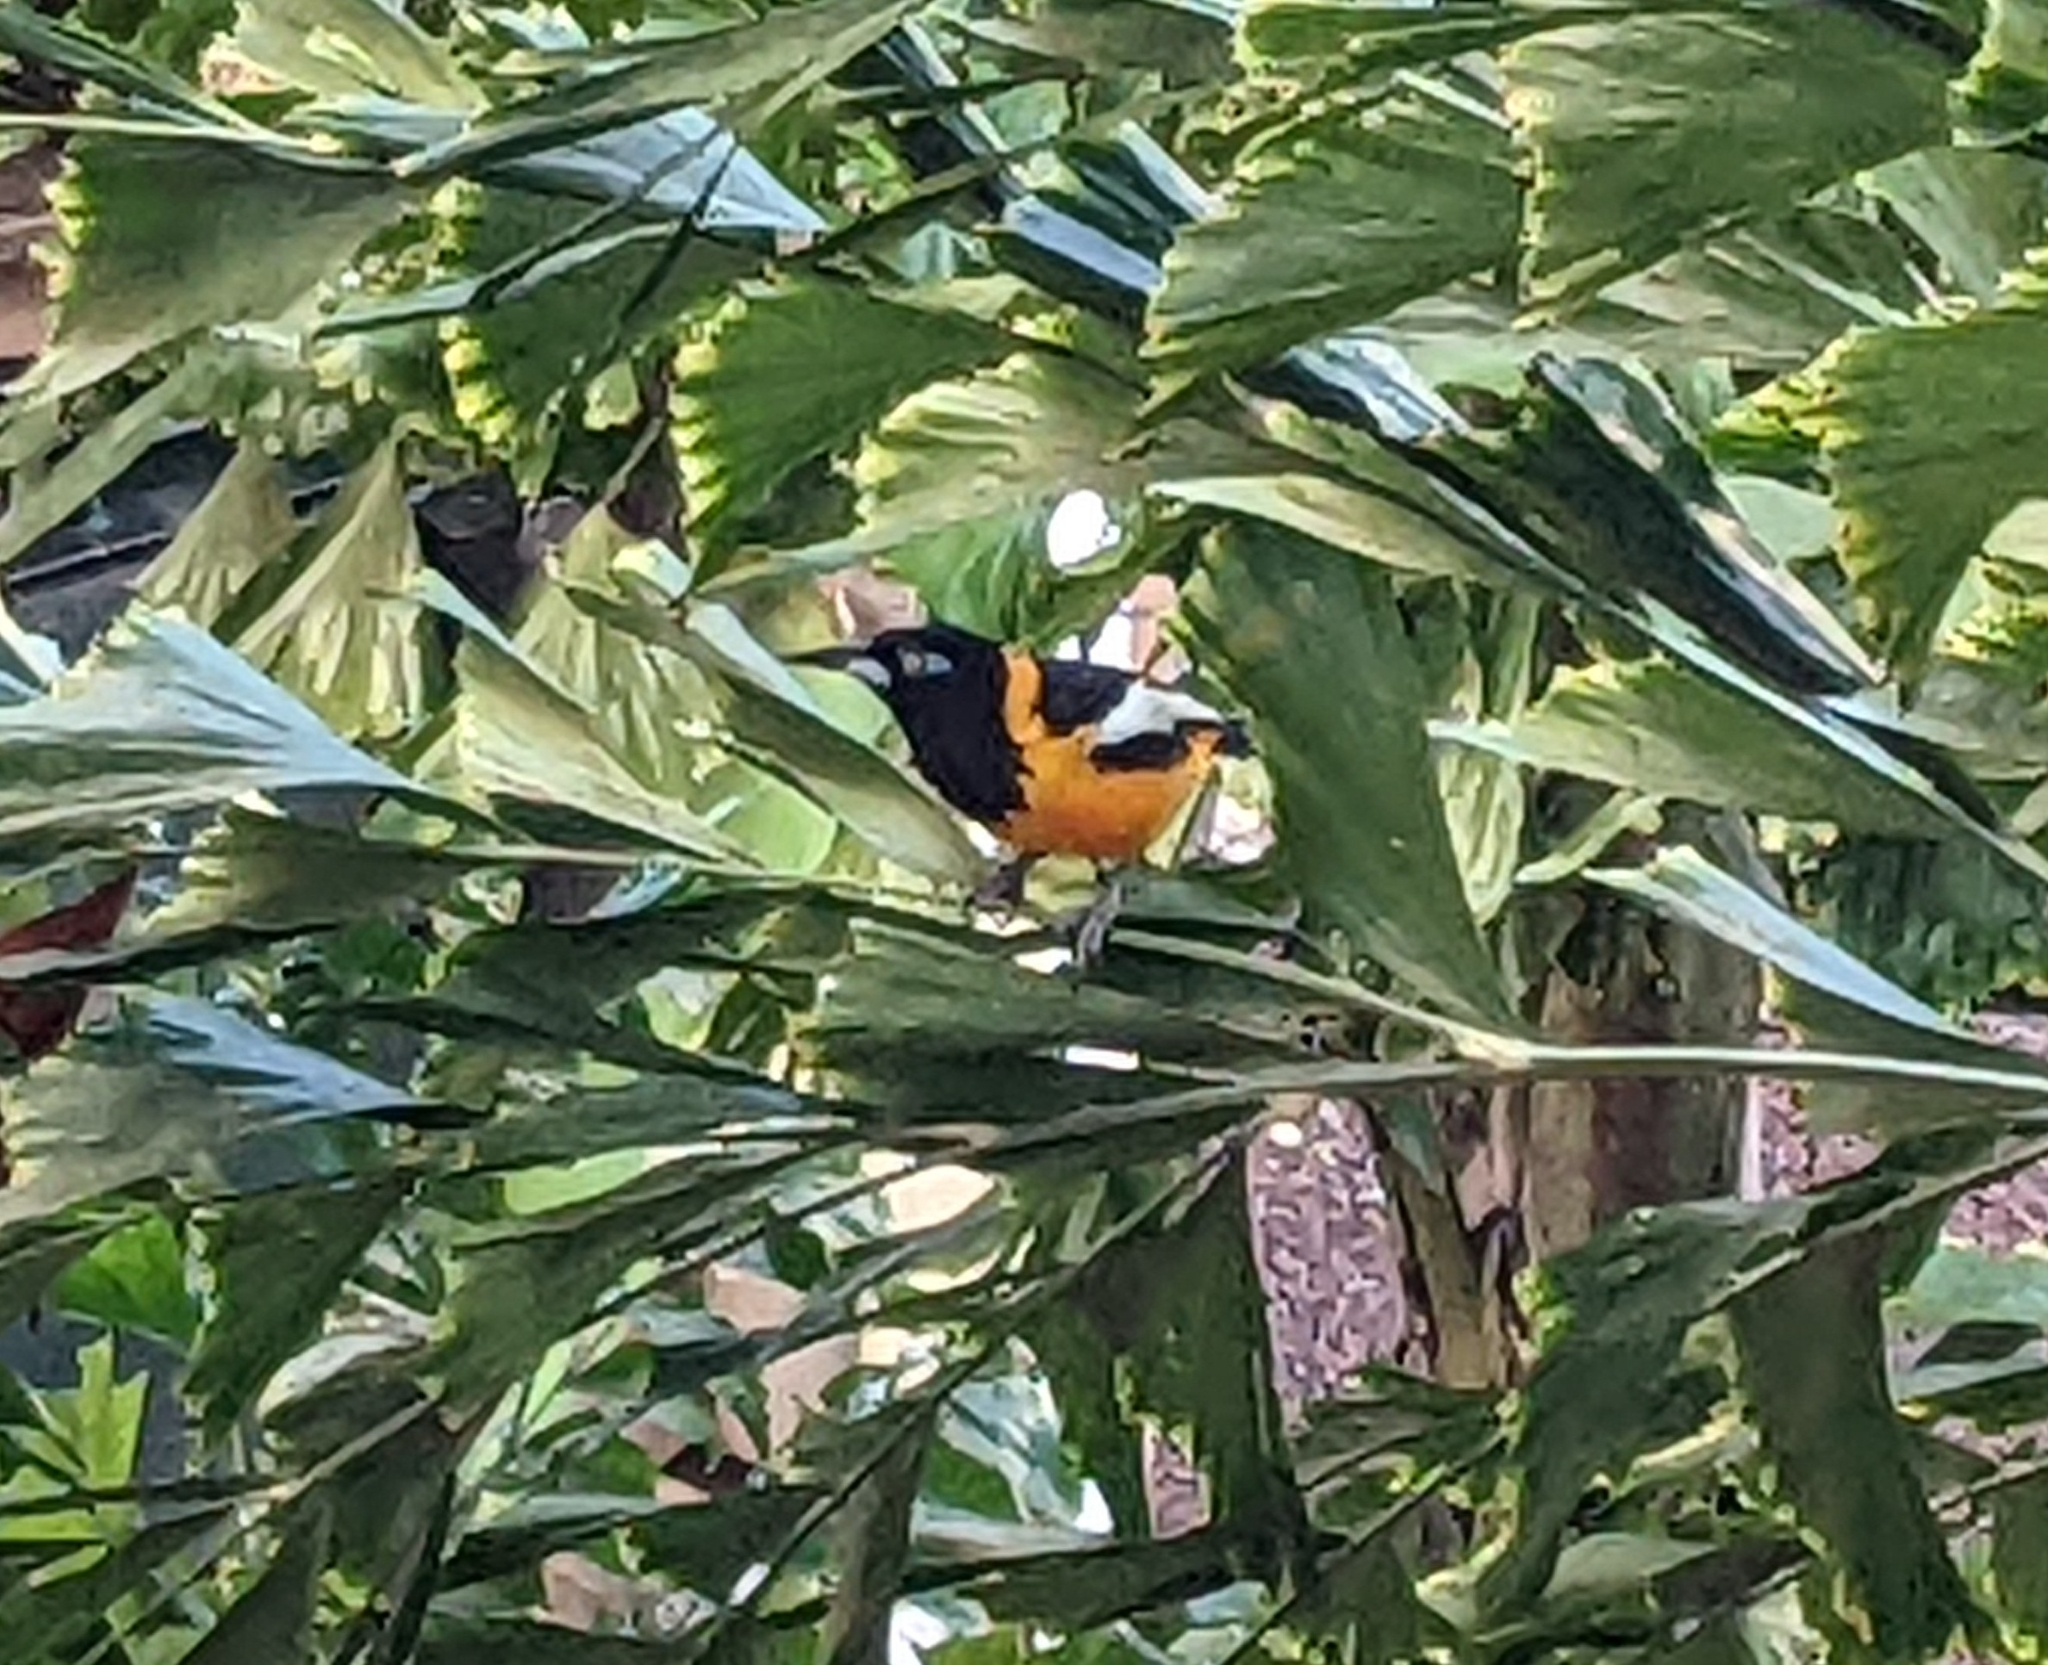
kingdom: Animalia
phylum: Chordata
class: Aves
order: Passeriformes
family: Icteridae
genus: Icterus
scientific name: Icterus icterus
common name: Venezuelan troupial
